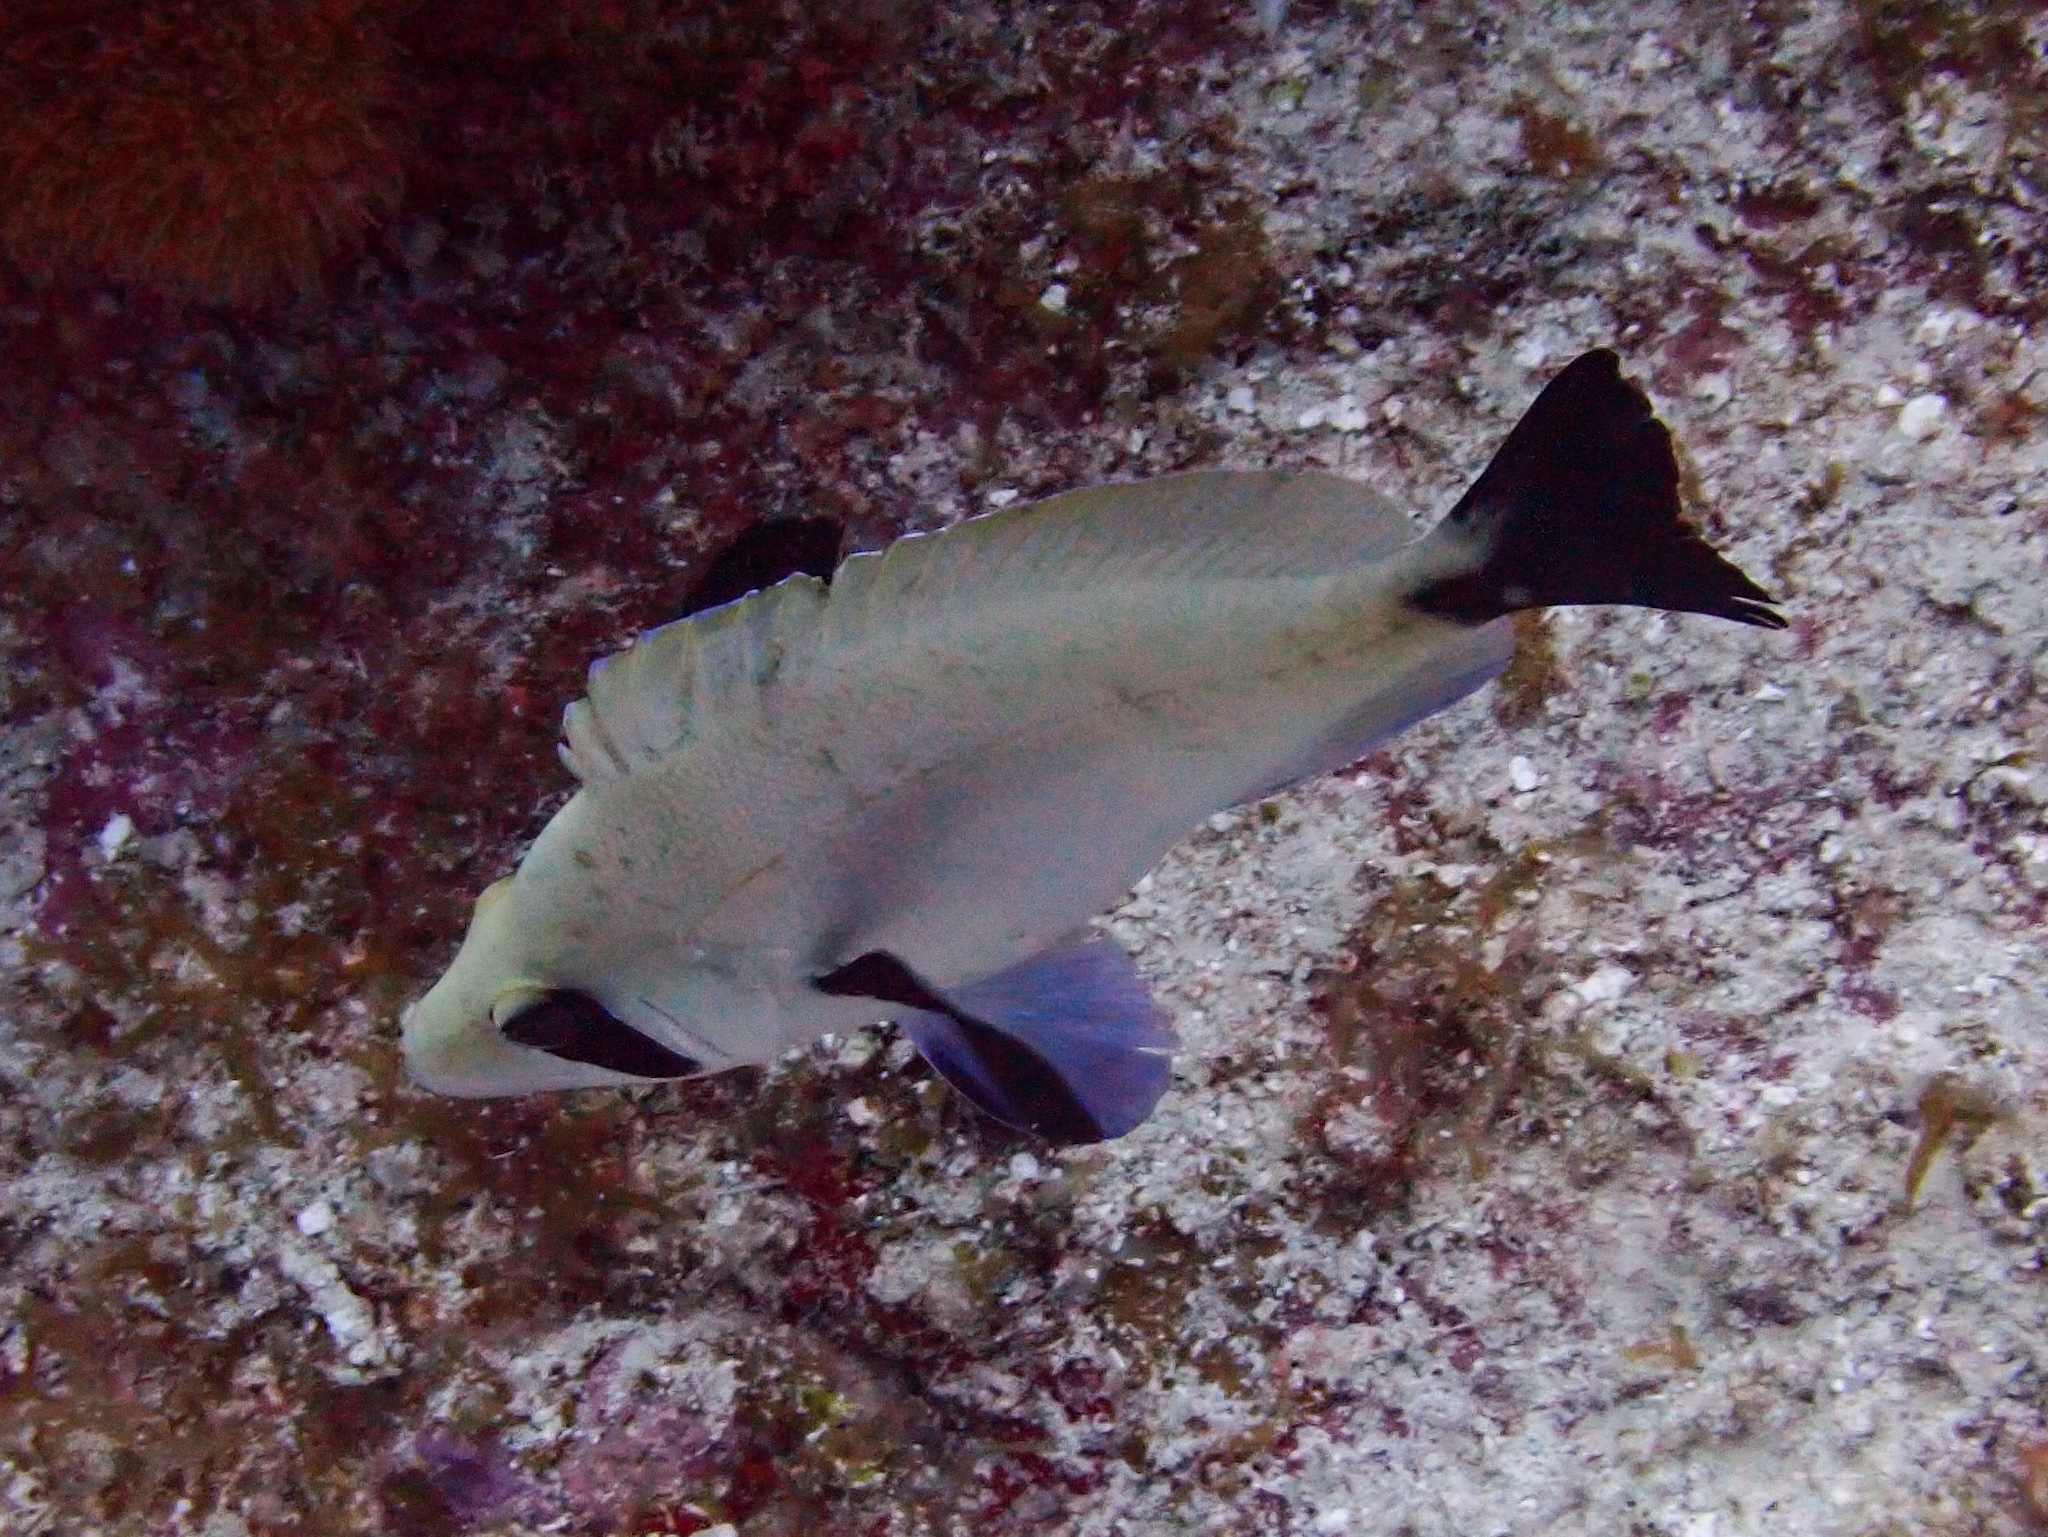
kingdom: Animalia
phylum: Chordata
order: Perciformes
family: Serranidae
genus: Hypoplectrus
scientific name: Hypoplectrus providencianus
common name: Masked hamlet
